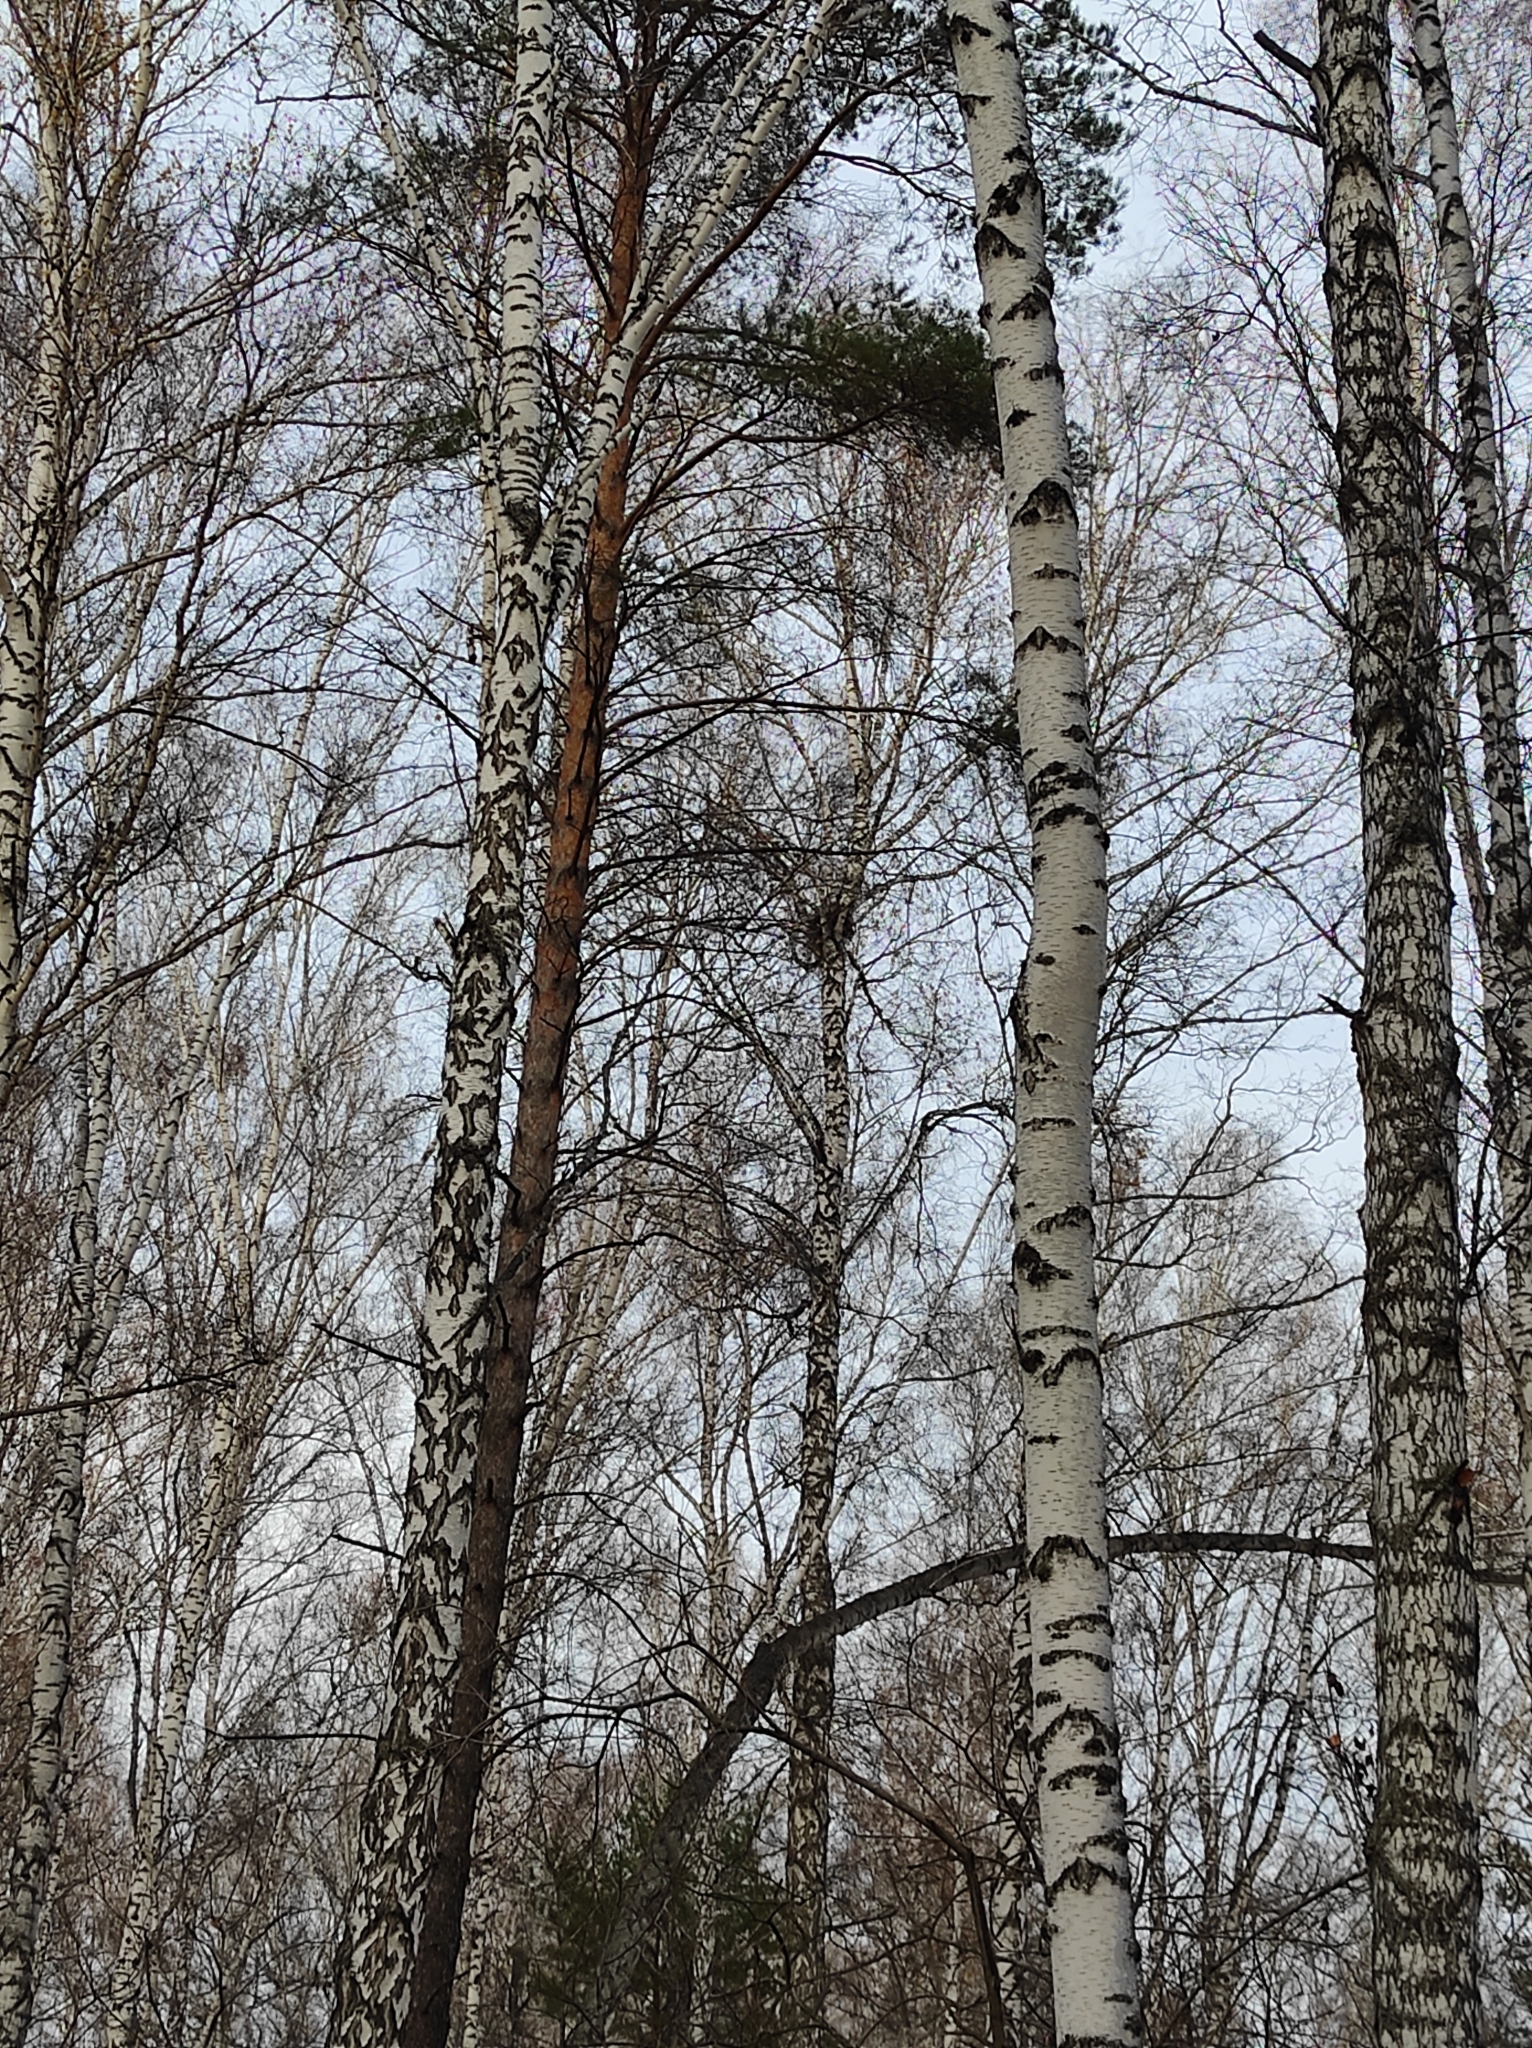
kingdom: Plantae
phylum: Tracheophyta
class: Magnoliopsida
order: Fagales
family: Betulaceae
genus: Betula
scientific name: Betula pendula
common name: Silver birch
